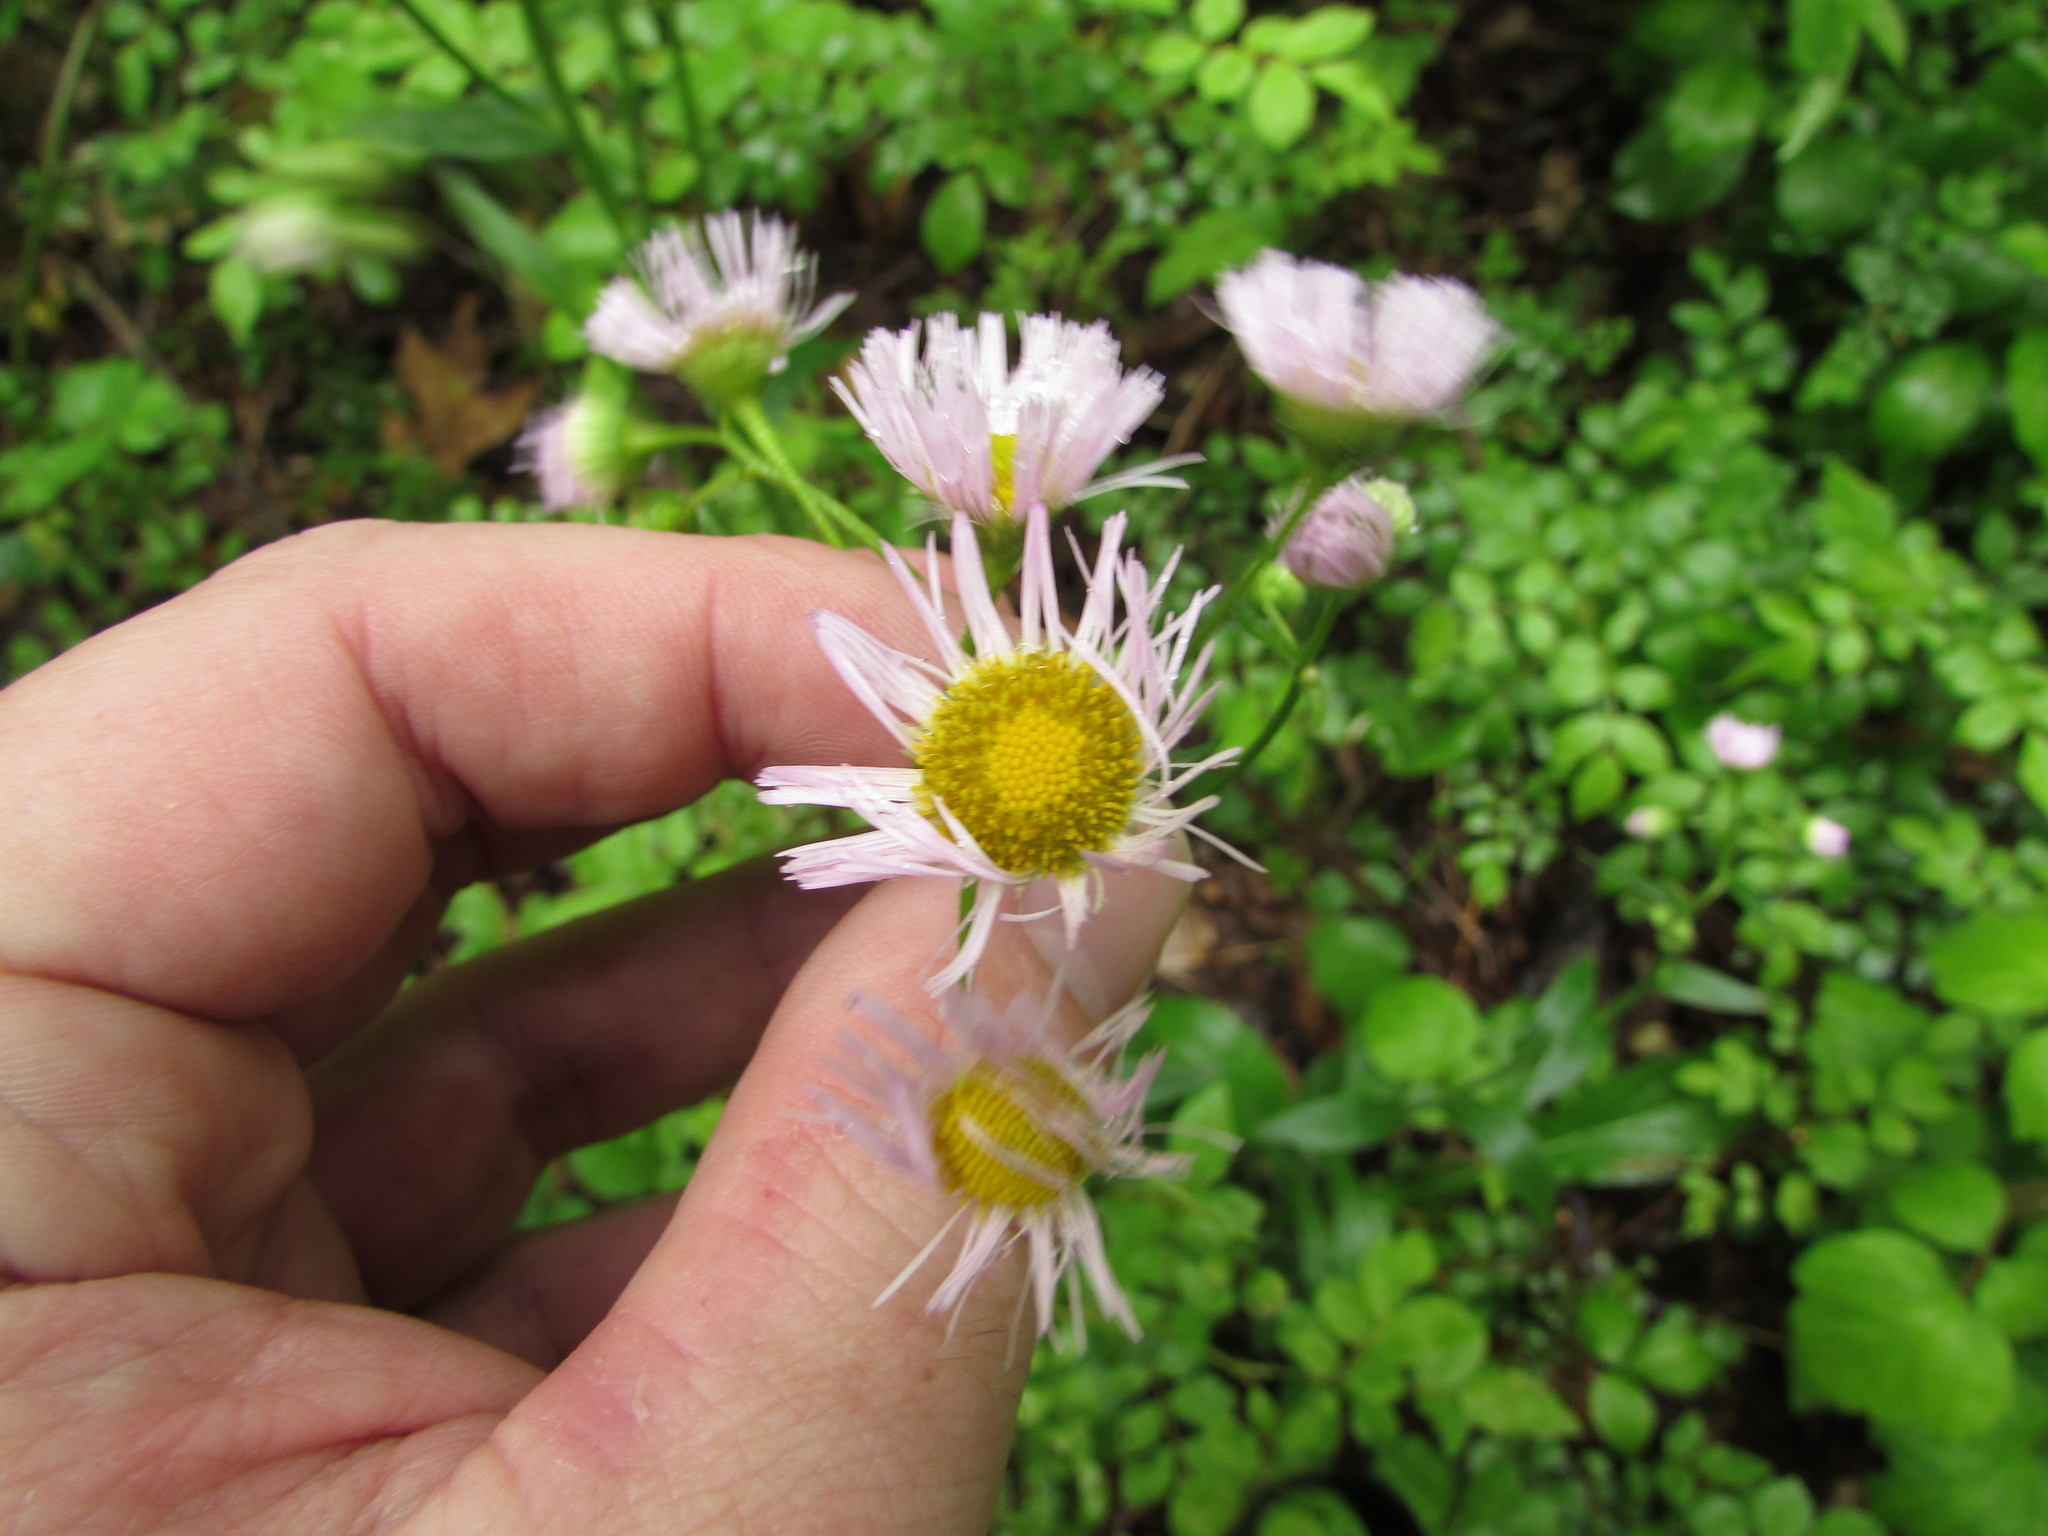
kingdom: Plantae
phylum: Tracheophyta
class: Magnoliopsida
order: Asterales
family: Asteraceae
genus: Erigeron
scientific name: Erigeron philadelphicus
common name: Robin's-plantain
